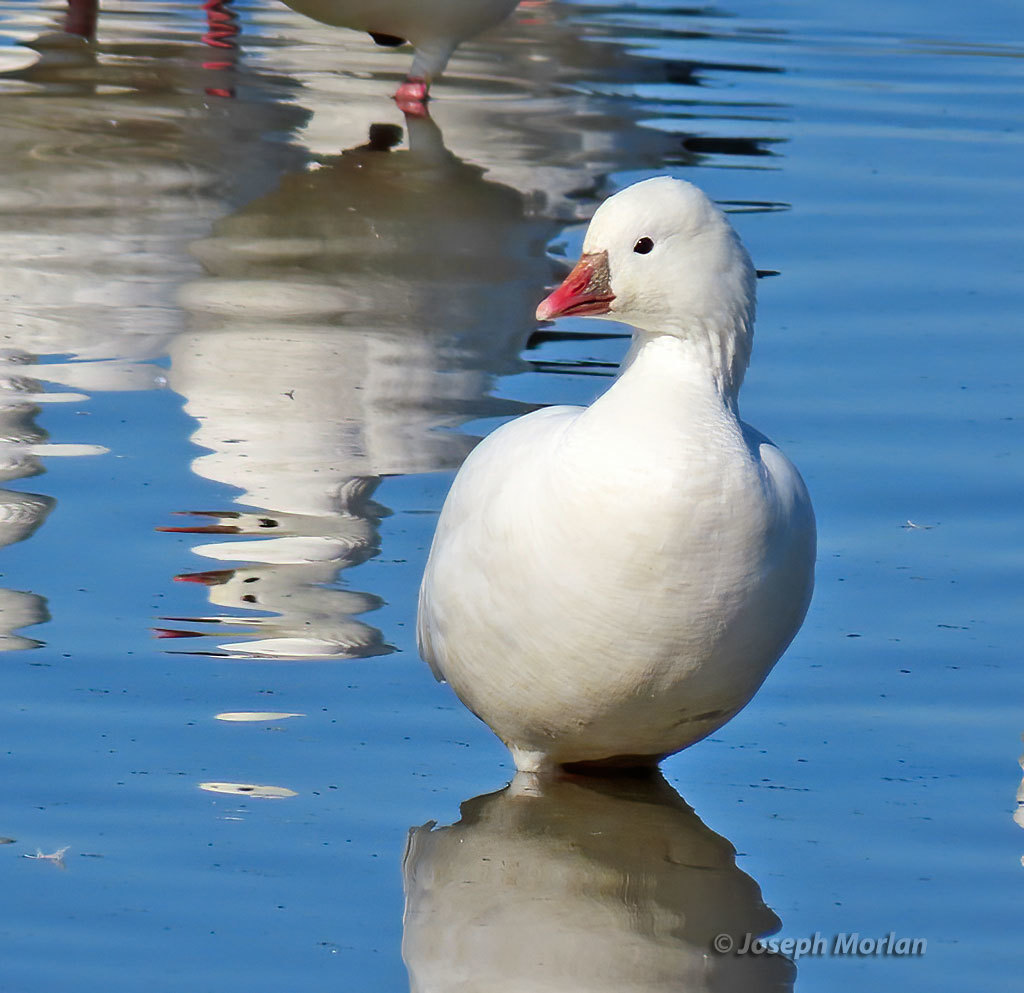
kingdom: Animalia
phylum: Chordata
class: Aves
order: Anseriformes
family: Anatidae
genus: Anser
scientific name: Anser rossii
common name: Ross's goose
